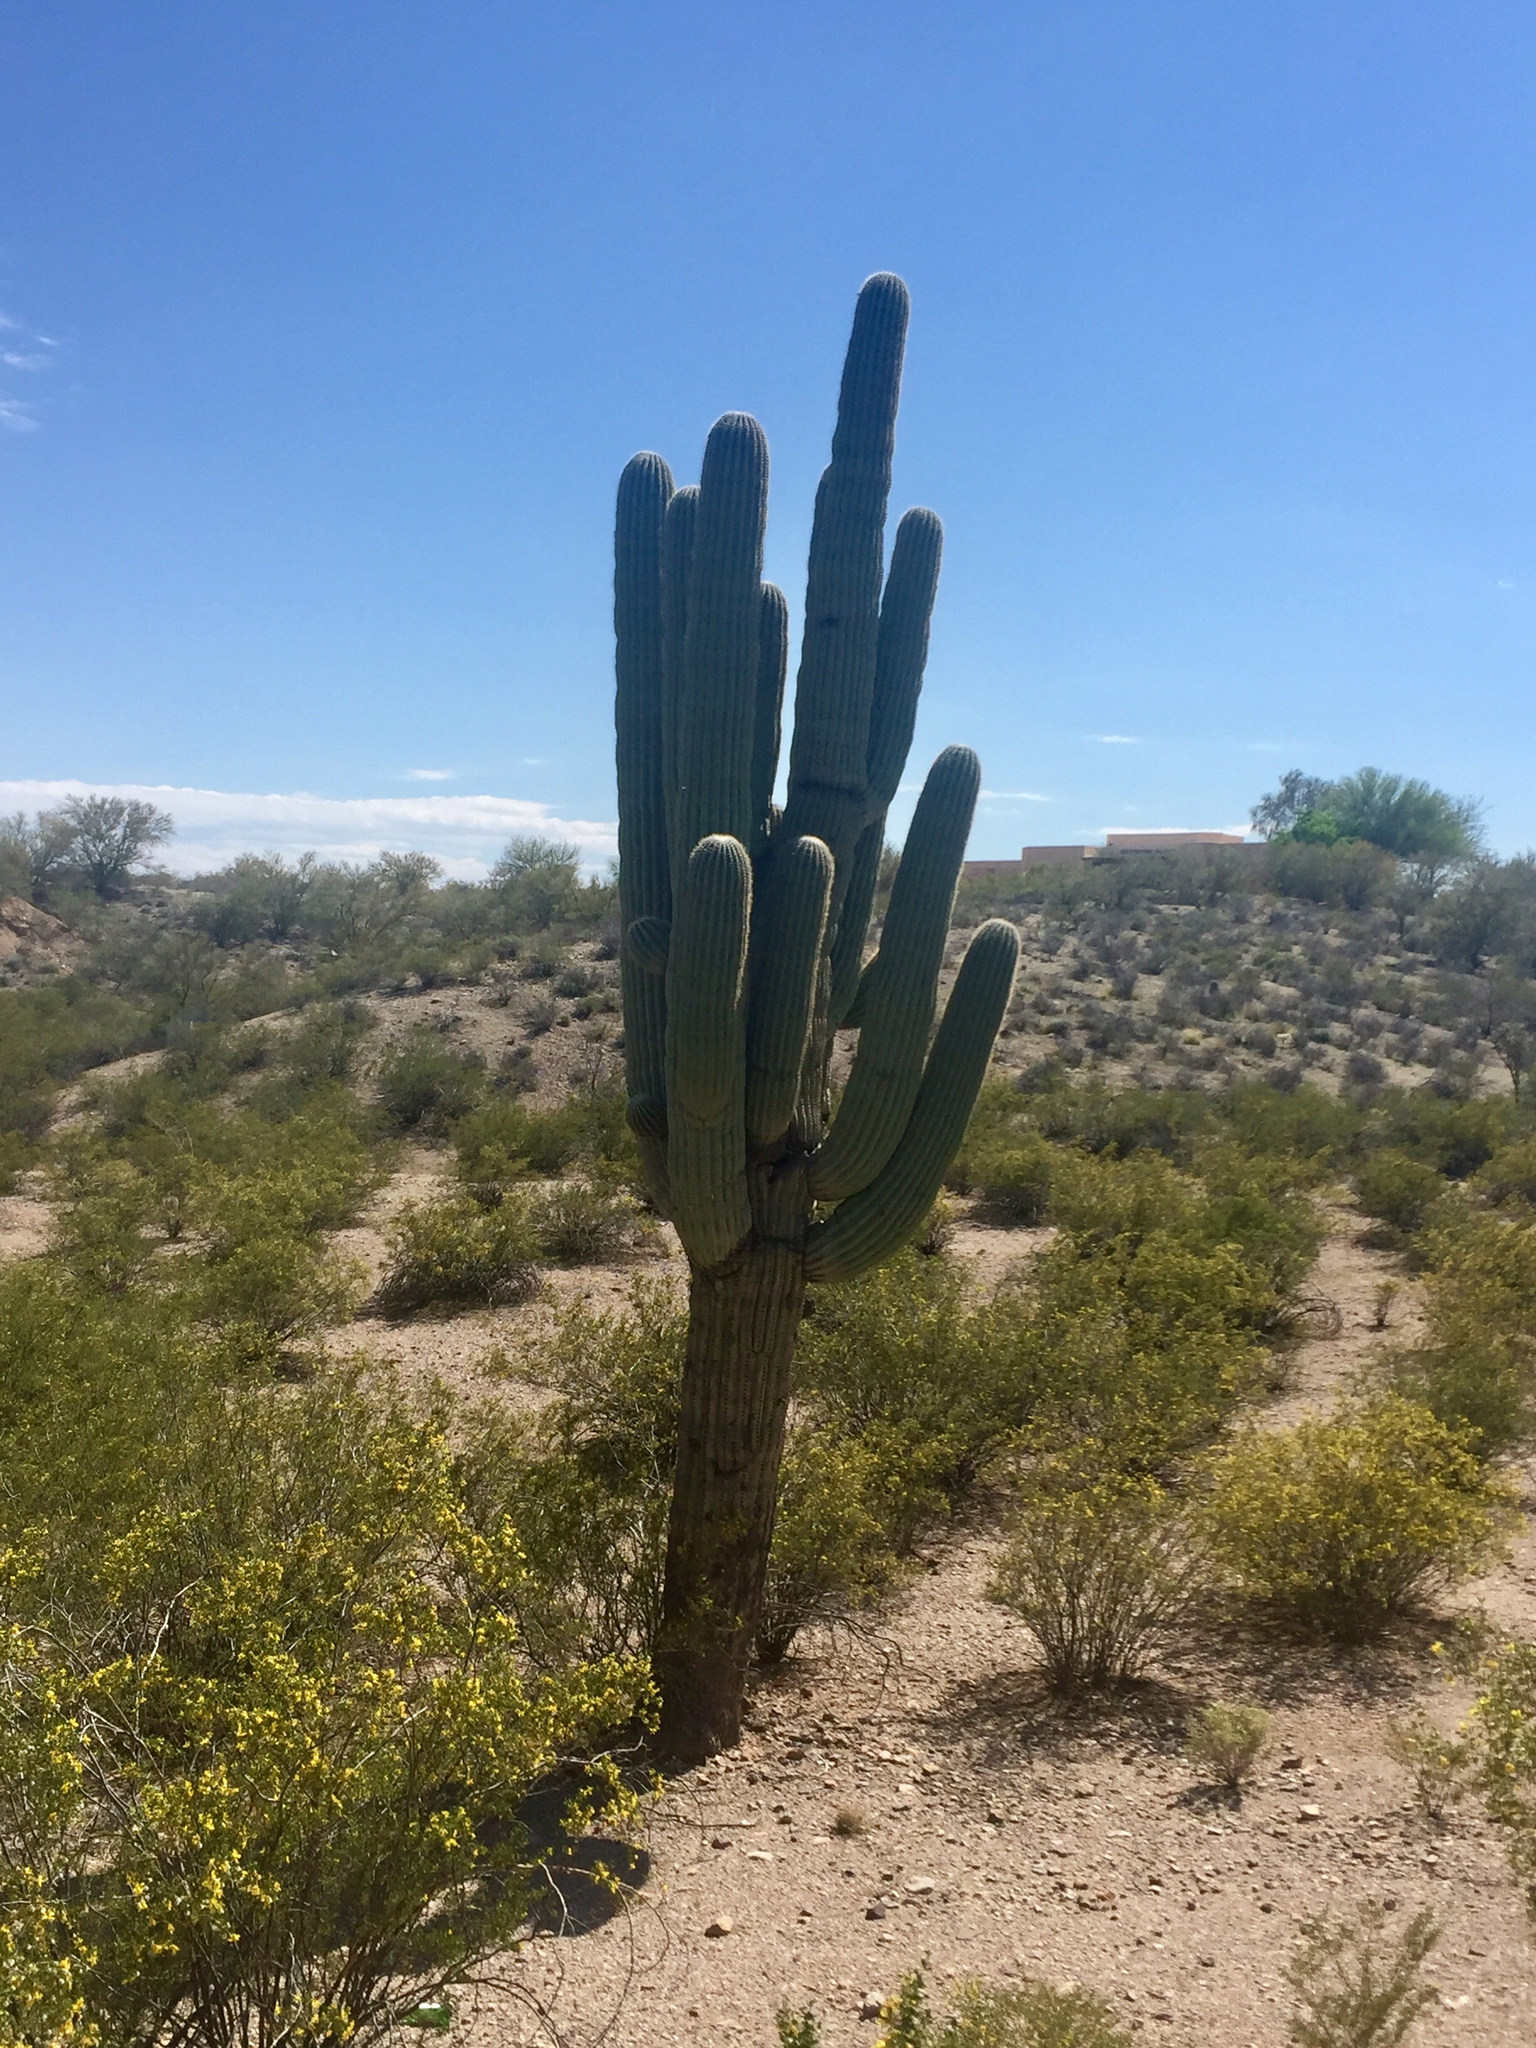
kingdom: Plantae
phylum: Tracheophyta
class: Magnoliopsida
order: Caryophyllales
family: Cactaceae
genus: Carnegiea
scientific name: Carnegiea gigantea
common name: Saguaro
